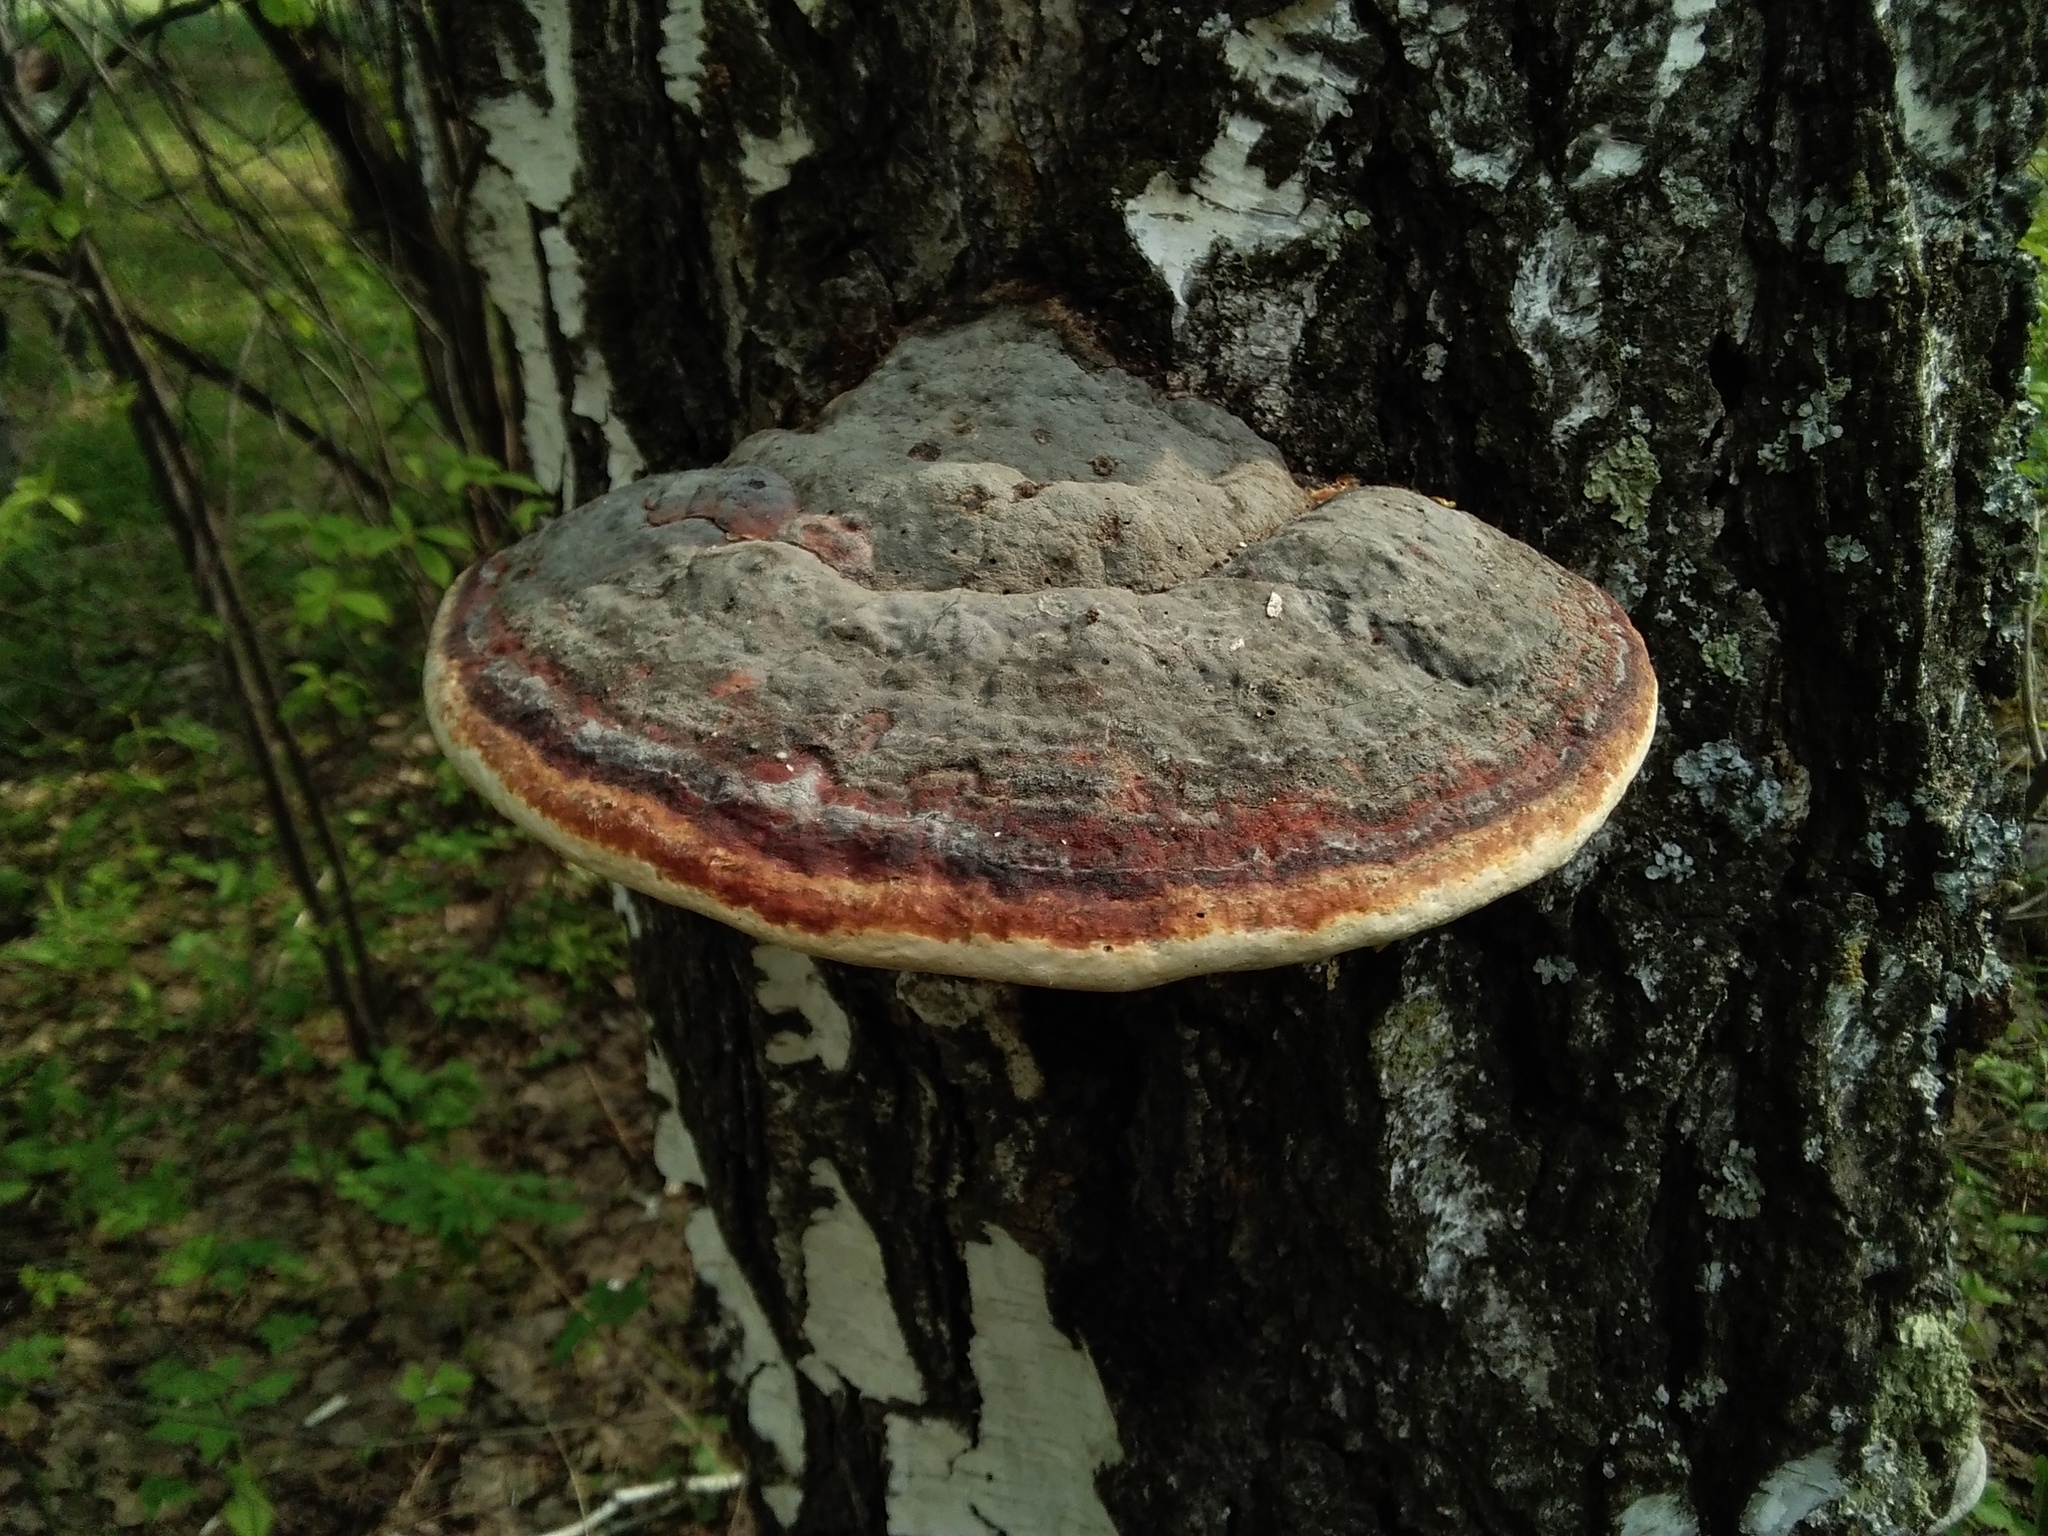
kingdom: Fungi
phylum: Basidiomycota
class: Agaricomycetes
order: Polyporales
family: Fomitopsidaceae
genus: Fomitopsis
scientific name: Fomitopsis pinicola
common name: Red-belted bracket
